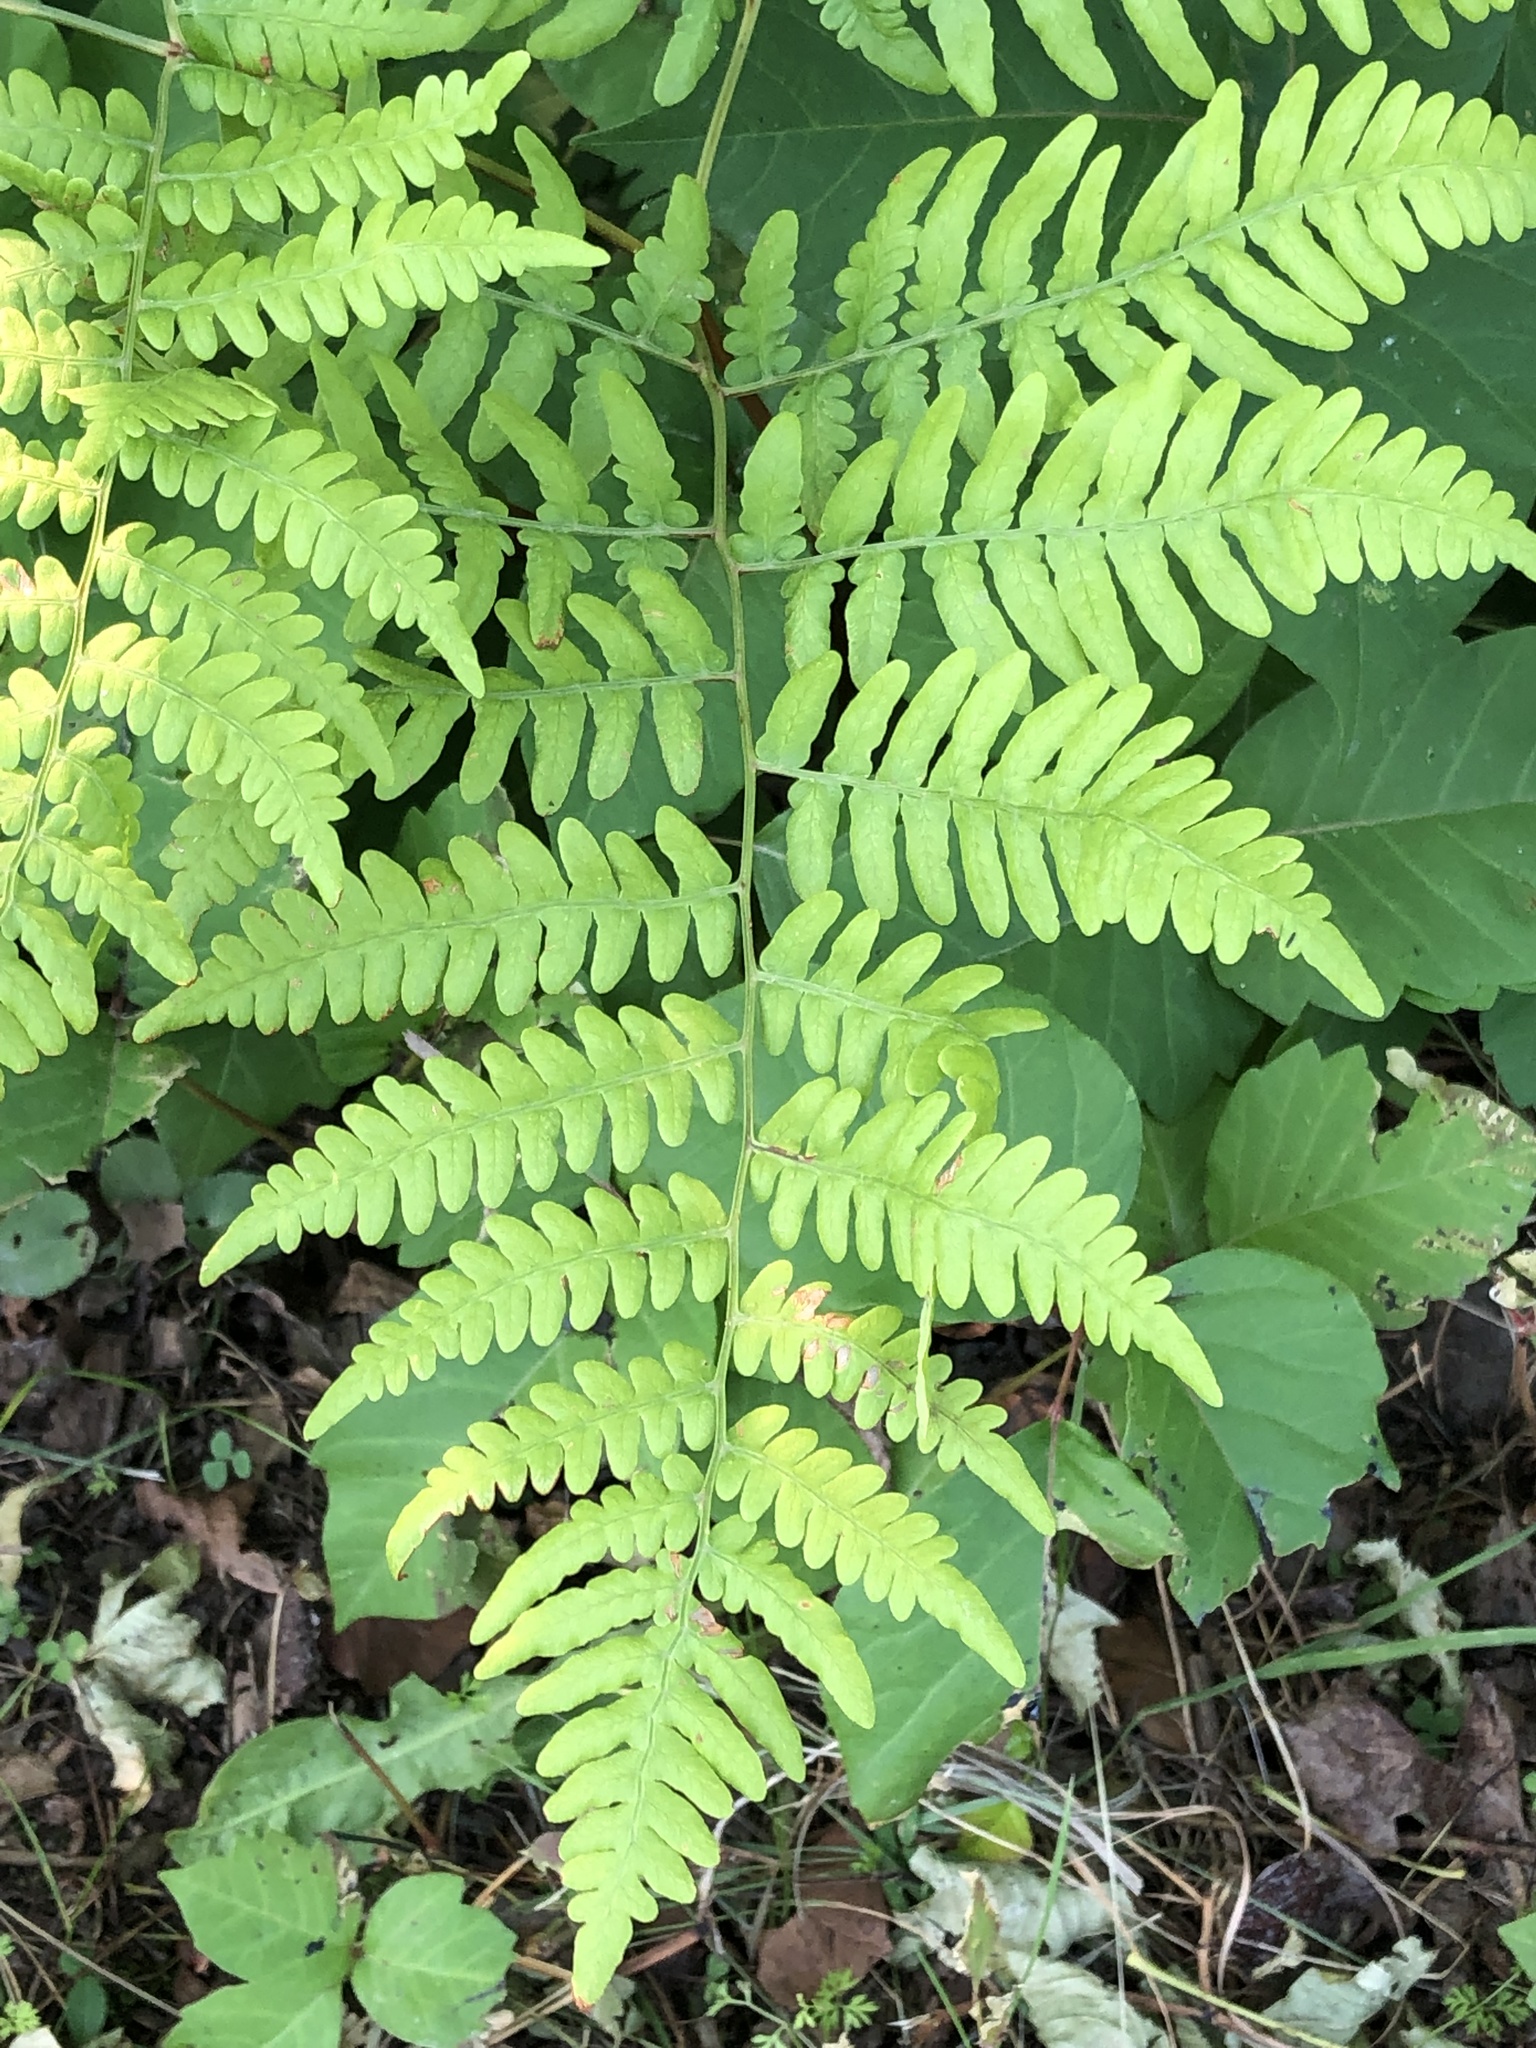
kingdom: Plantae
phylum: Tracheophyta
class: Polypodiopsida
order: Polypodiales
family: Dennstaedtiaceae
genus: Pteridium
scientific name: Pteridium aquilinum
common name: Bracken
